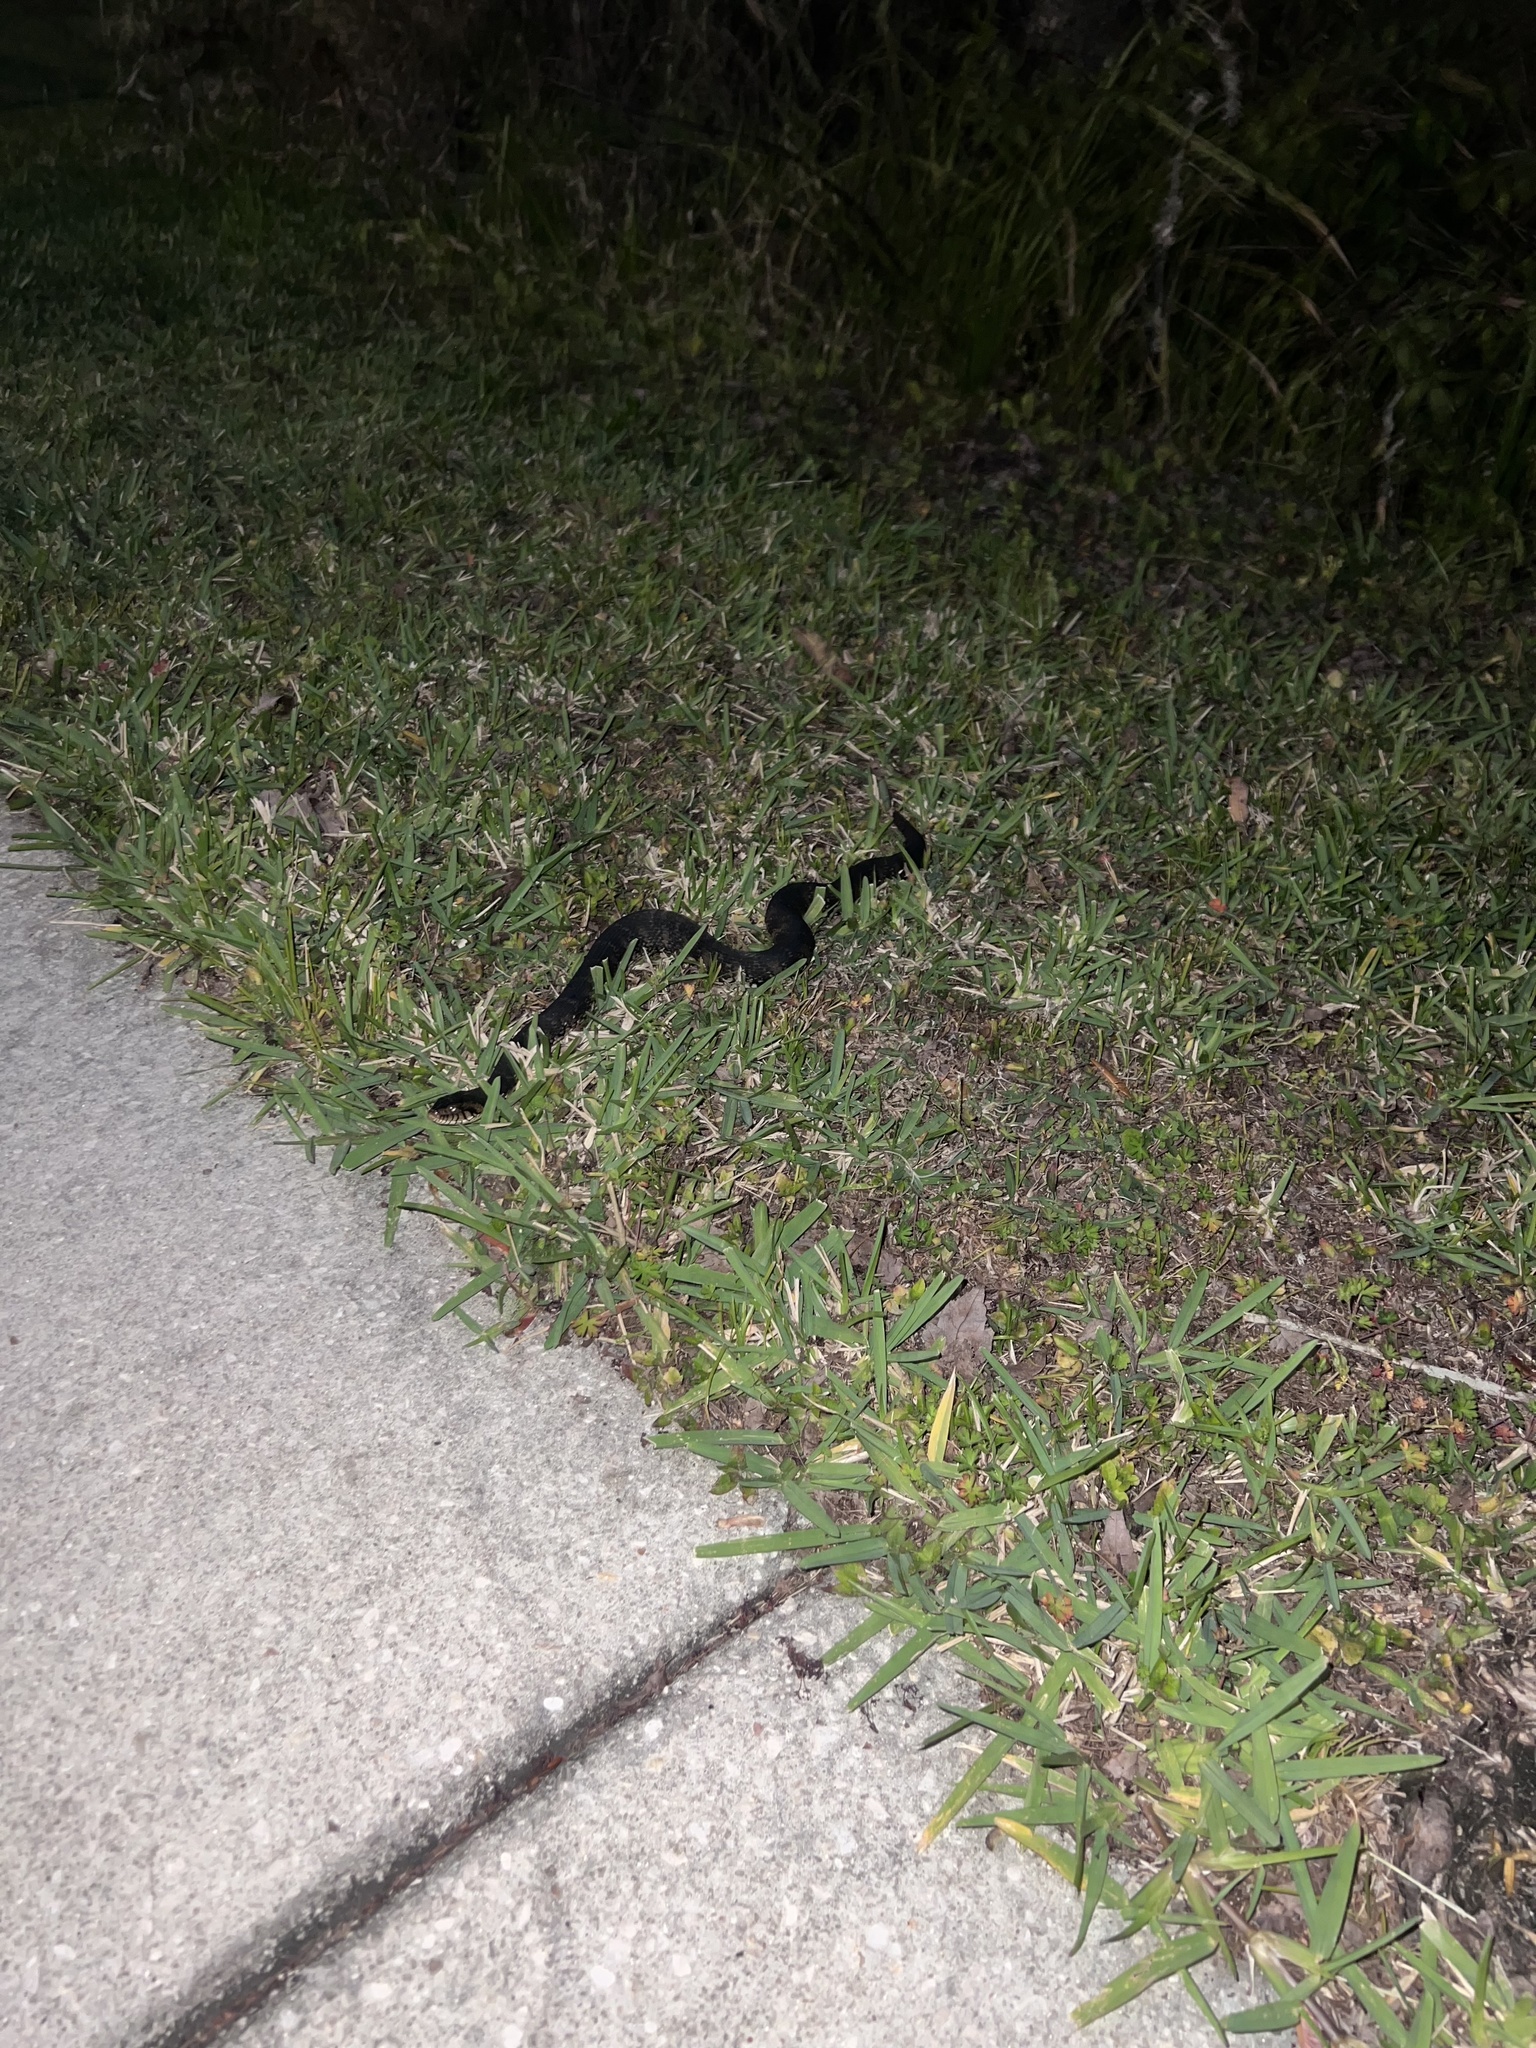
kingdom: Animalia
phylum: Chordata
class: Squamata
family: Colubridae
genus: Nerodia
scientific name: Nerodia fasciata
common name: Southern water snake
